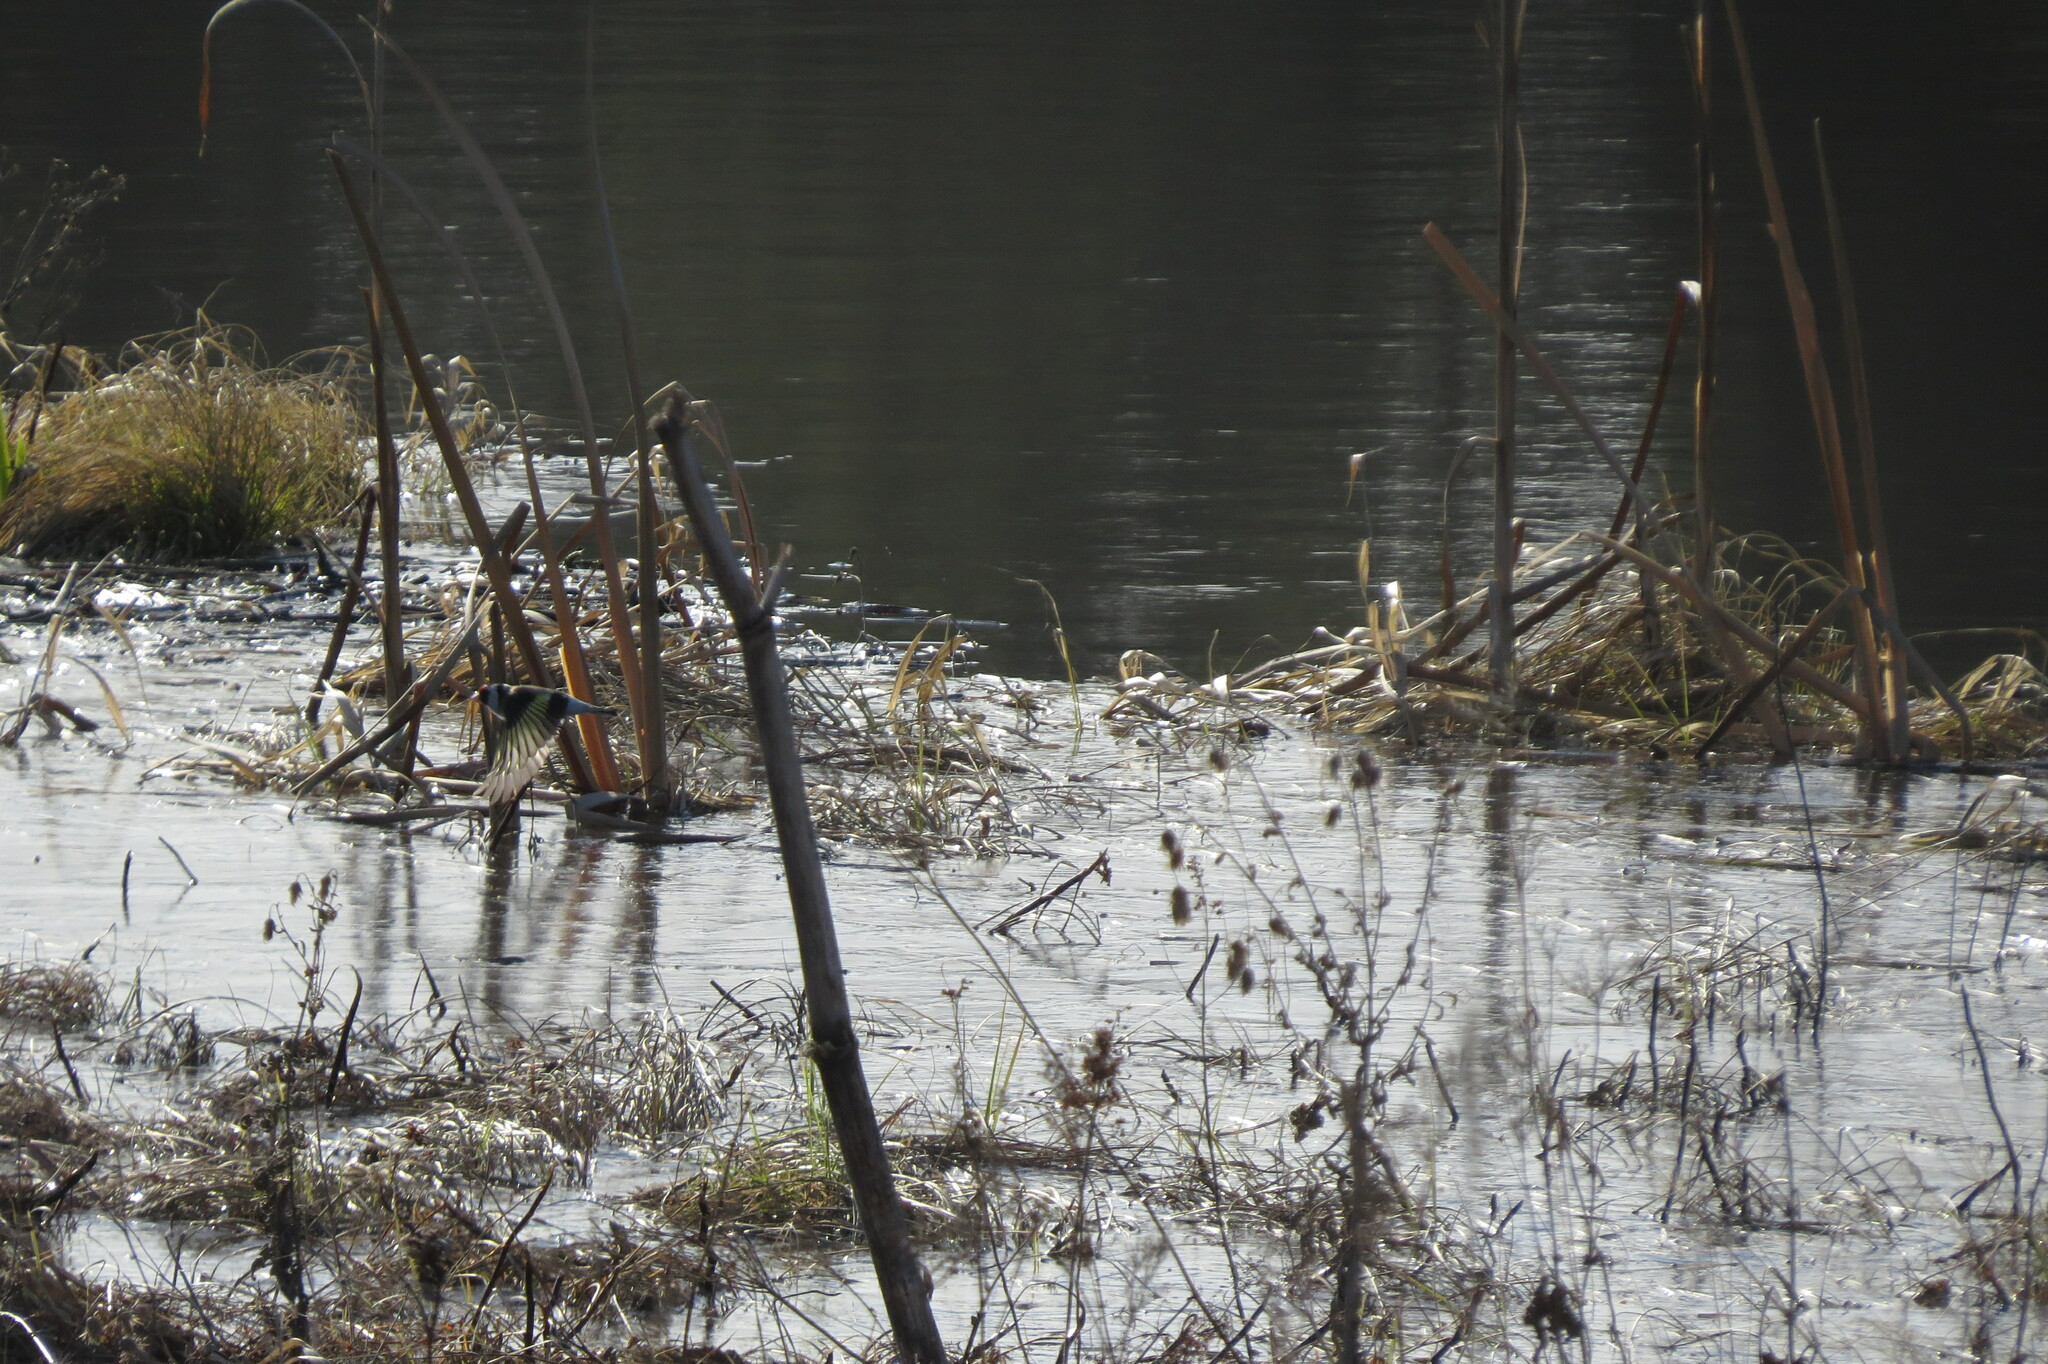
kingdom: Animalia
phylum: Chordata
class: Aves
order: Passeriformes
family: Fringillidae
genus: Carduelis
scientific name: Carduelis carduelis
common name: European goldfinch
